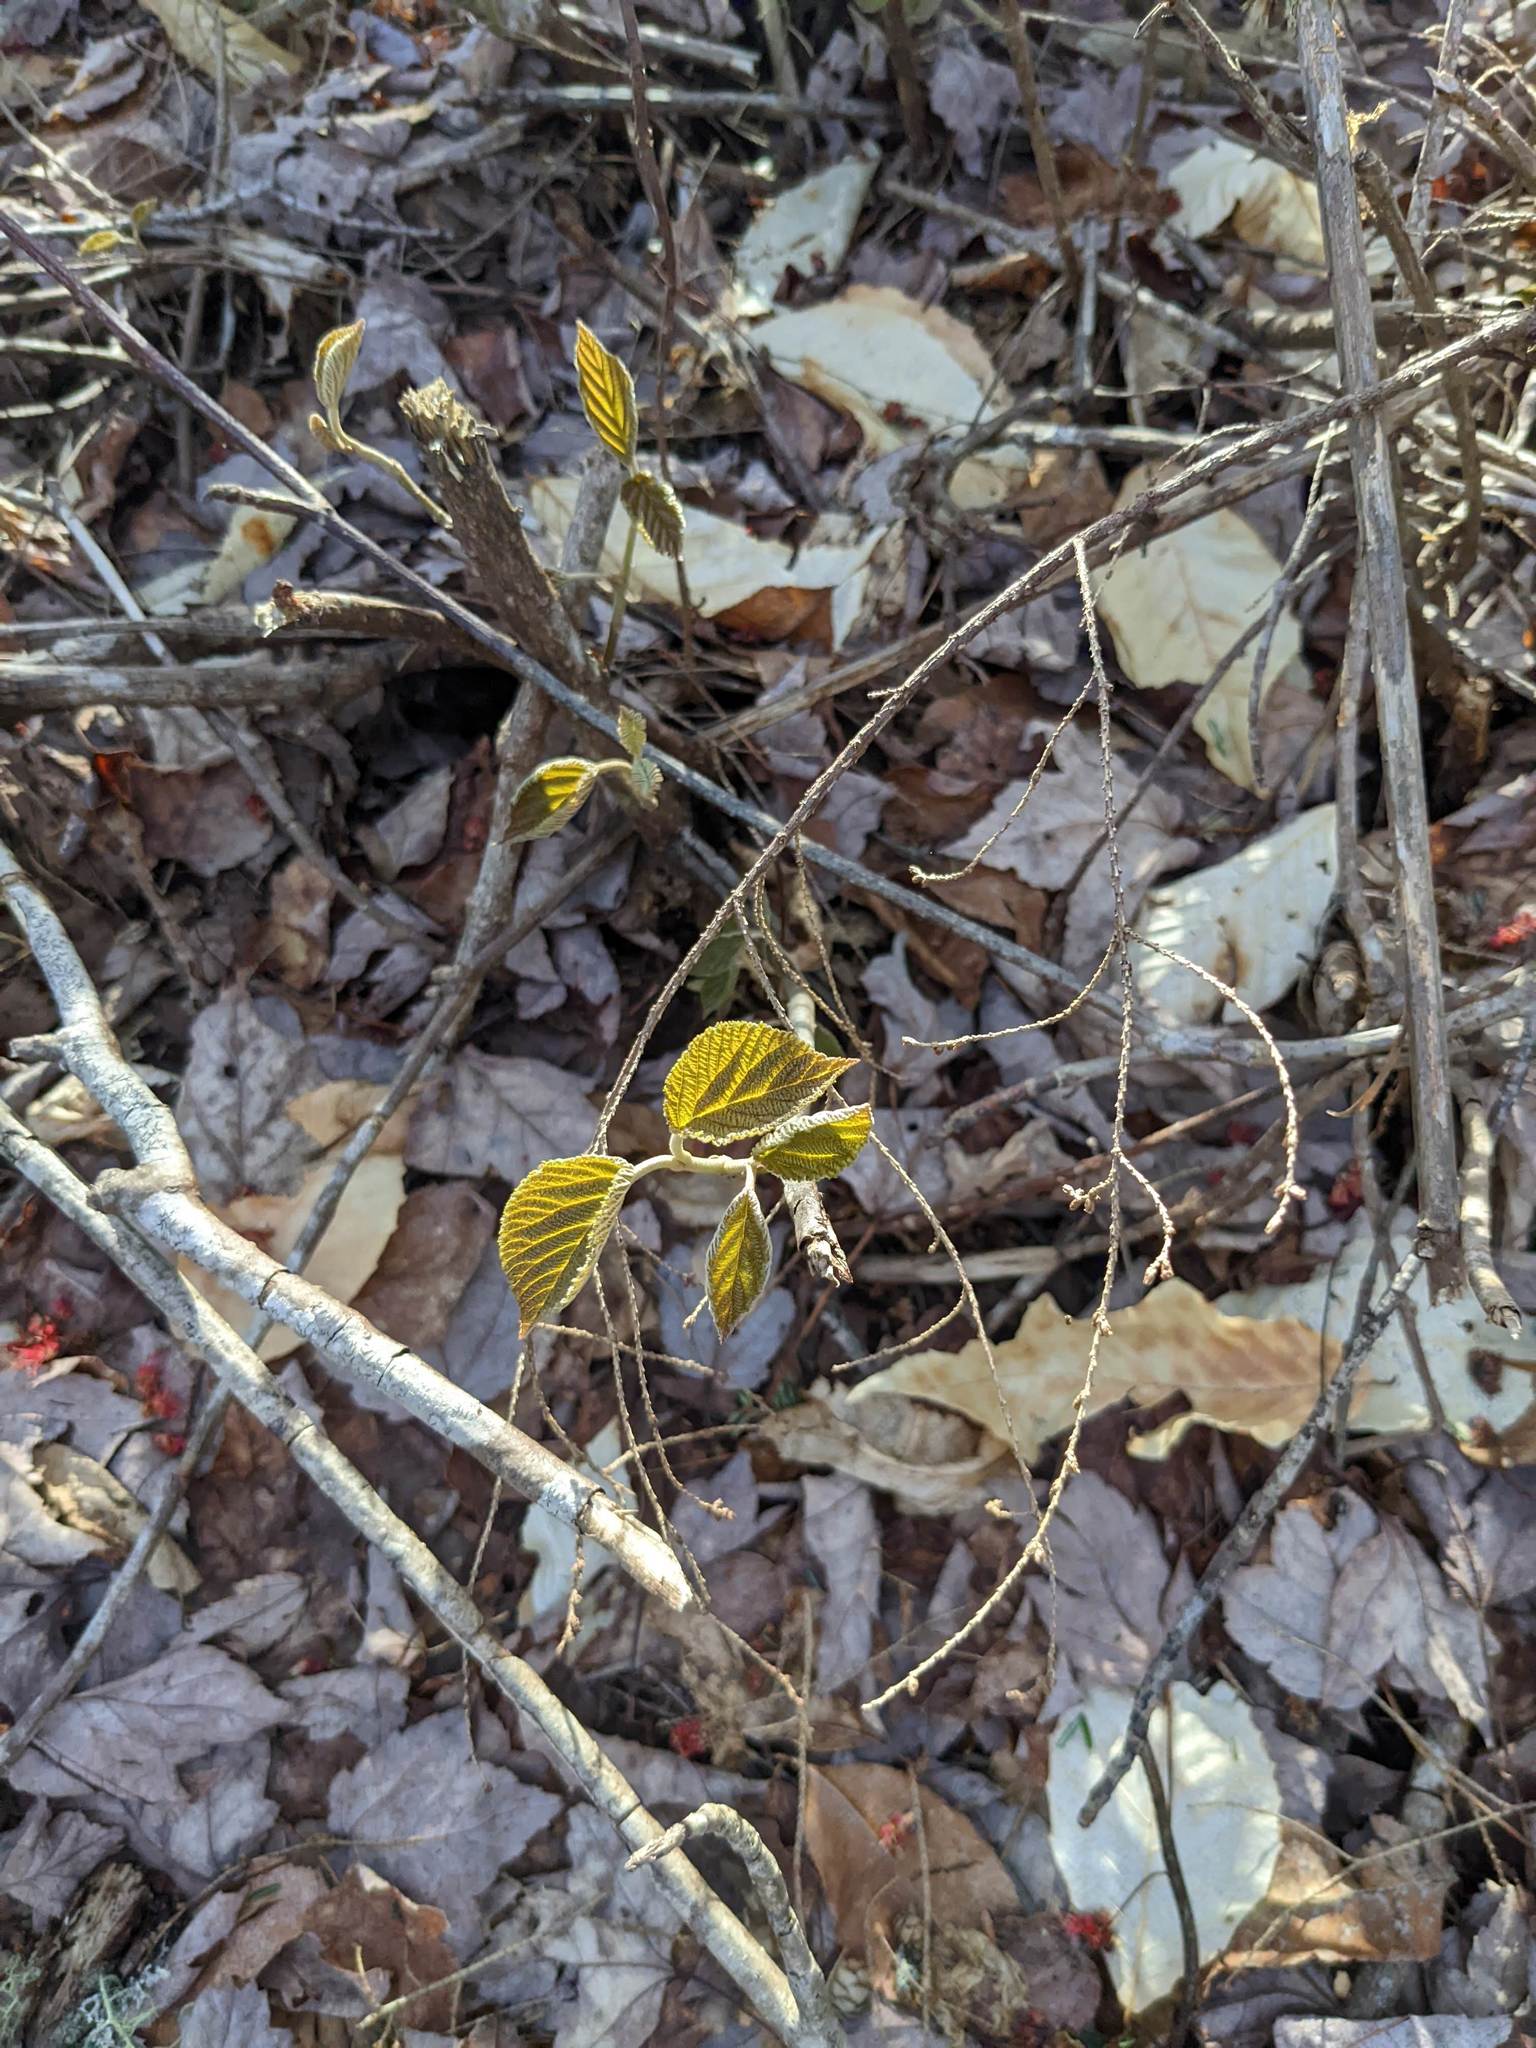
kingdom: Plantae
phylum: Tracheophyta
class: Magnoliopsida
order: Dipsacales
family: Viburnaceae
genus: Viburnum
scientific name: Viburnum lantanoides
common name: Hobblebush
